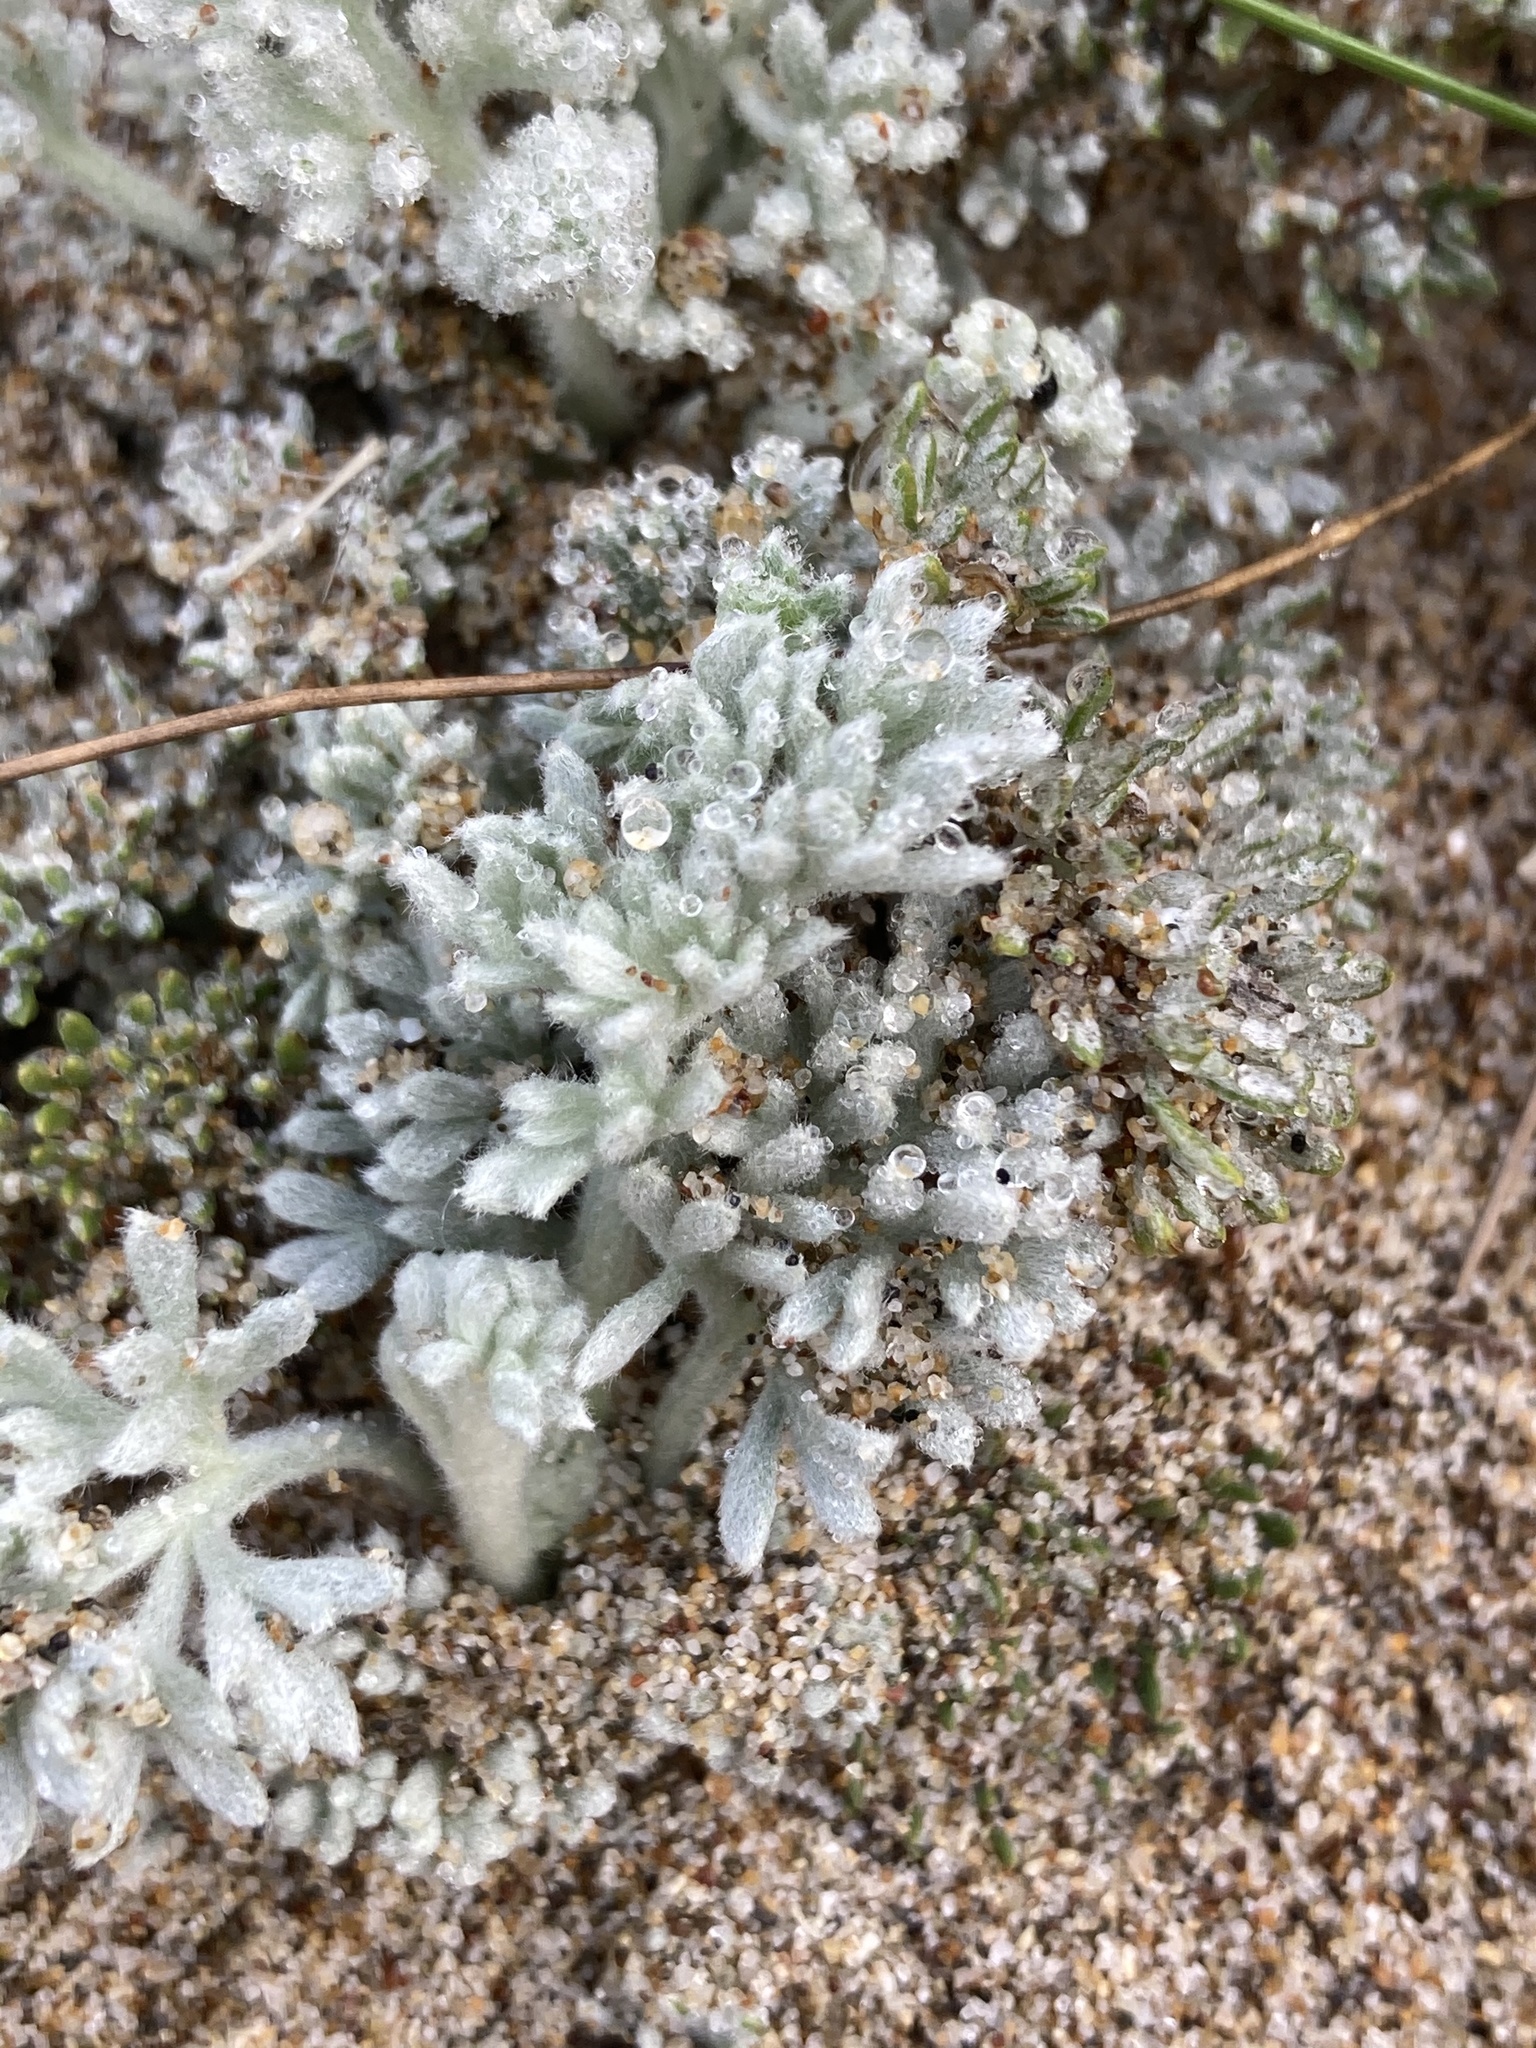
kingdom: Plantae
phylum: Tracheophyta
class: Magnoliopsida
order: Asterales
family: Asteraceae
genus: Artemisia
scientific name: Artemisia pycnocephala
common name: Coastal sagewort
